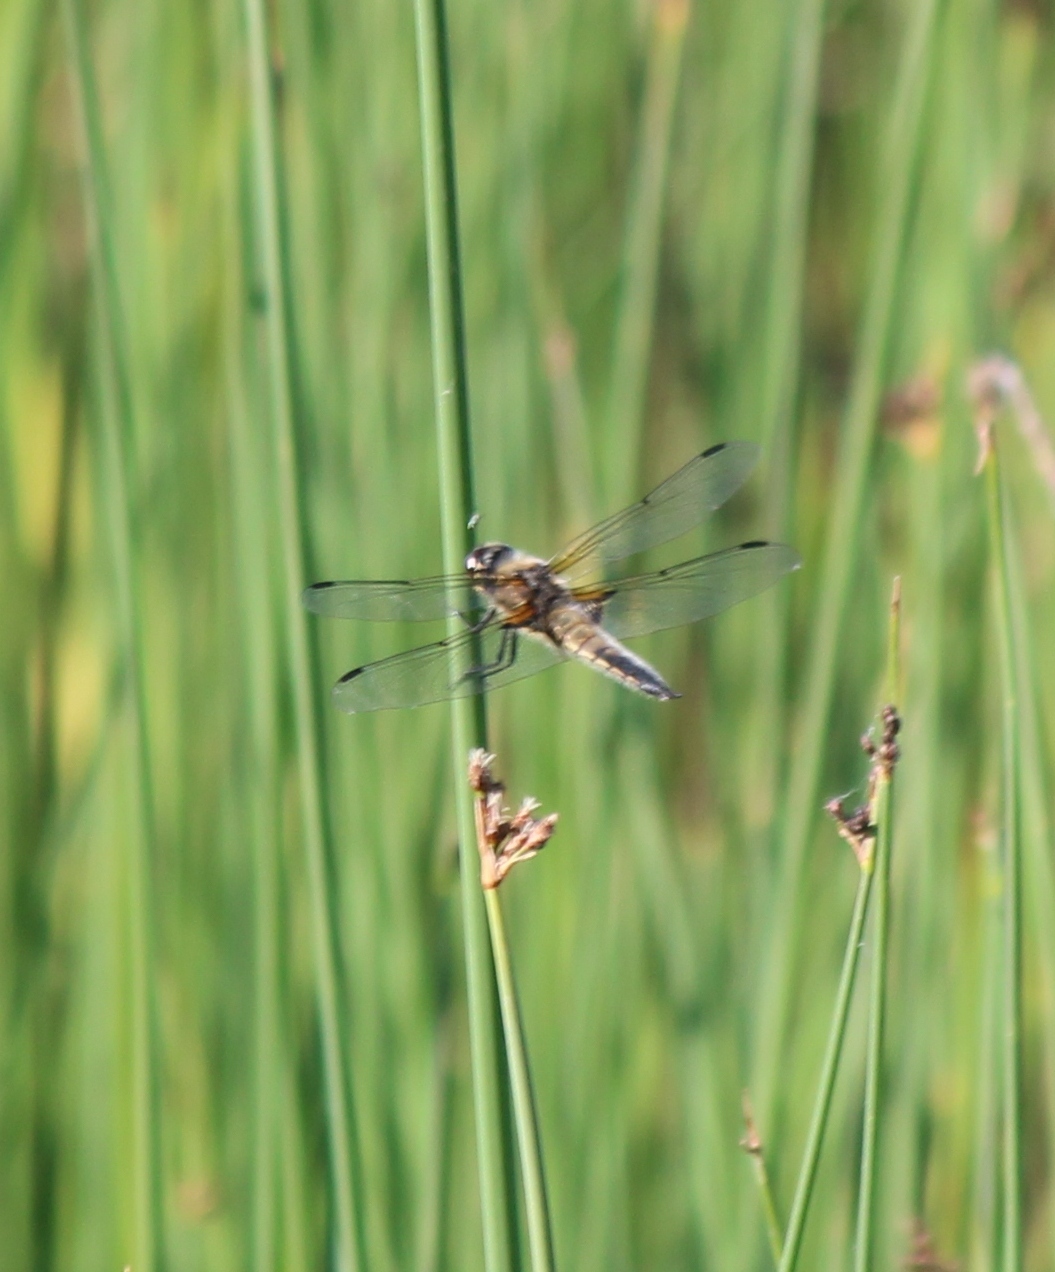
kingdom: Animalia
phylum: Arthropoda
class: Insecta
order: Odonata
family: Libellulidae
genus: Libellula
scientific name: Libellula quadrimaculata
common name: Four-spotted chaser
